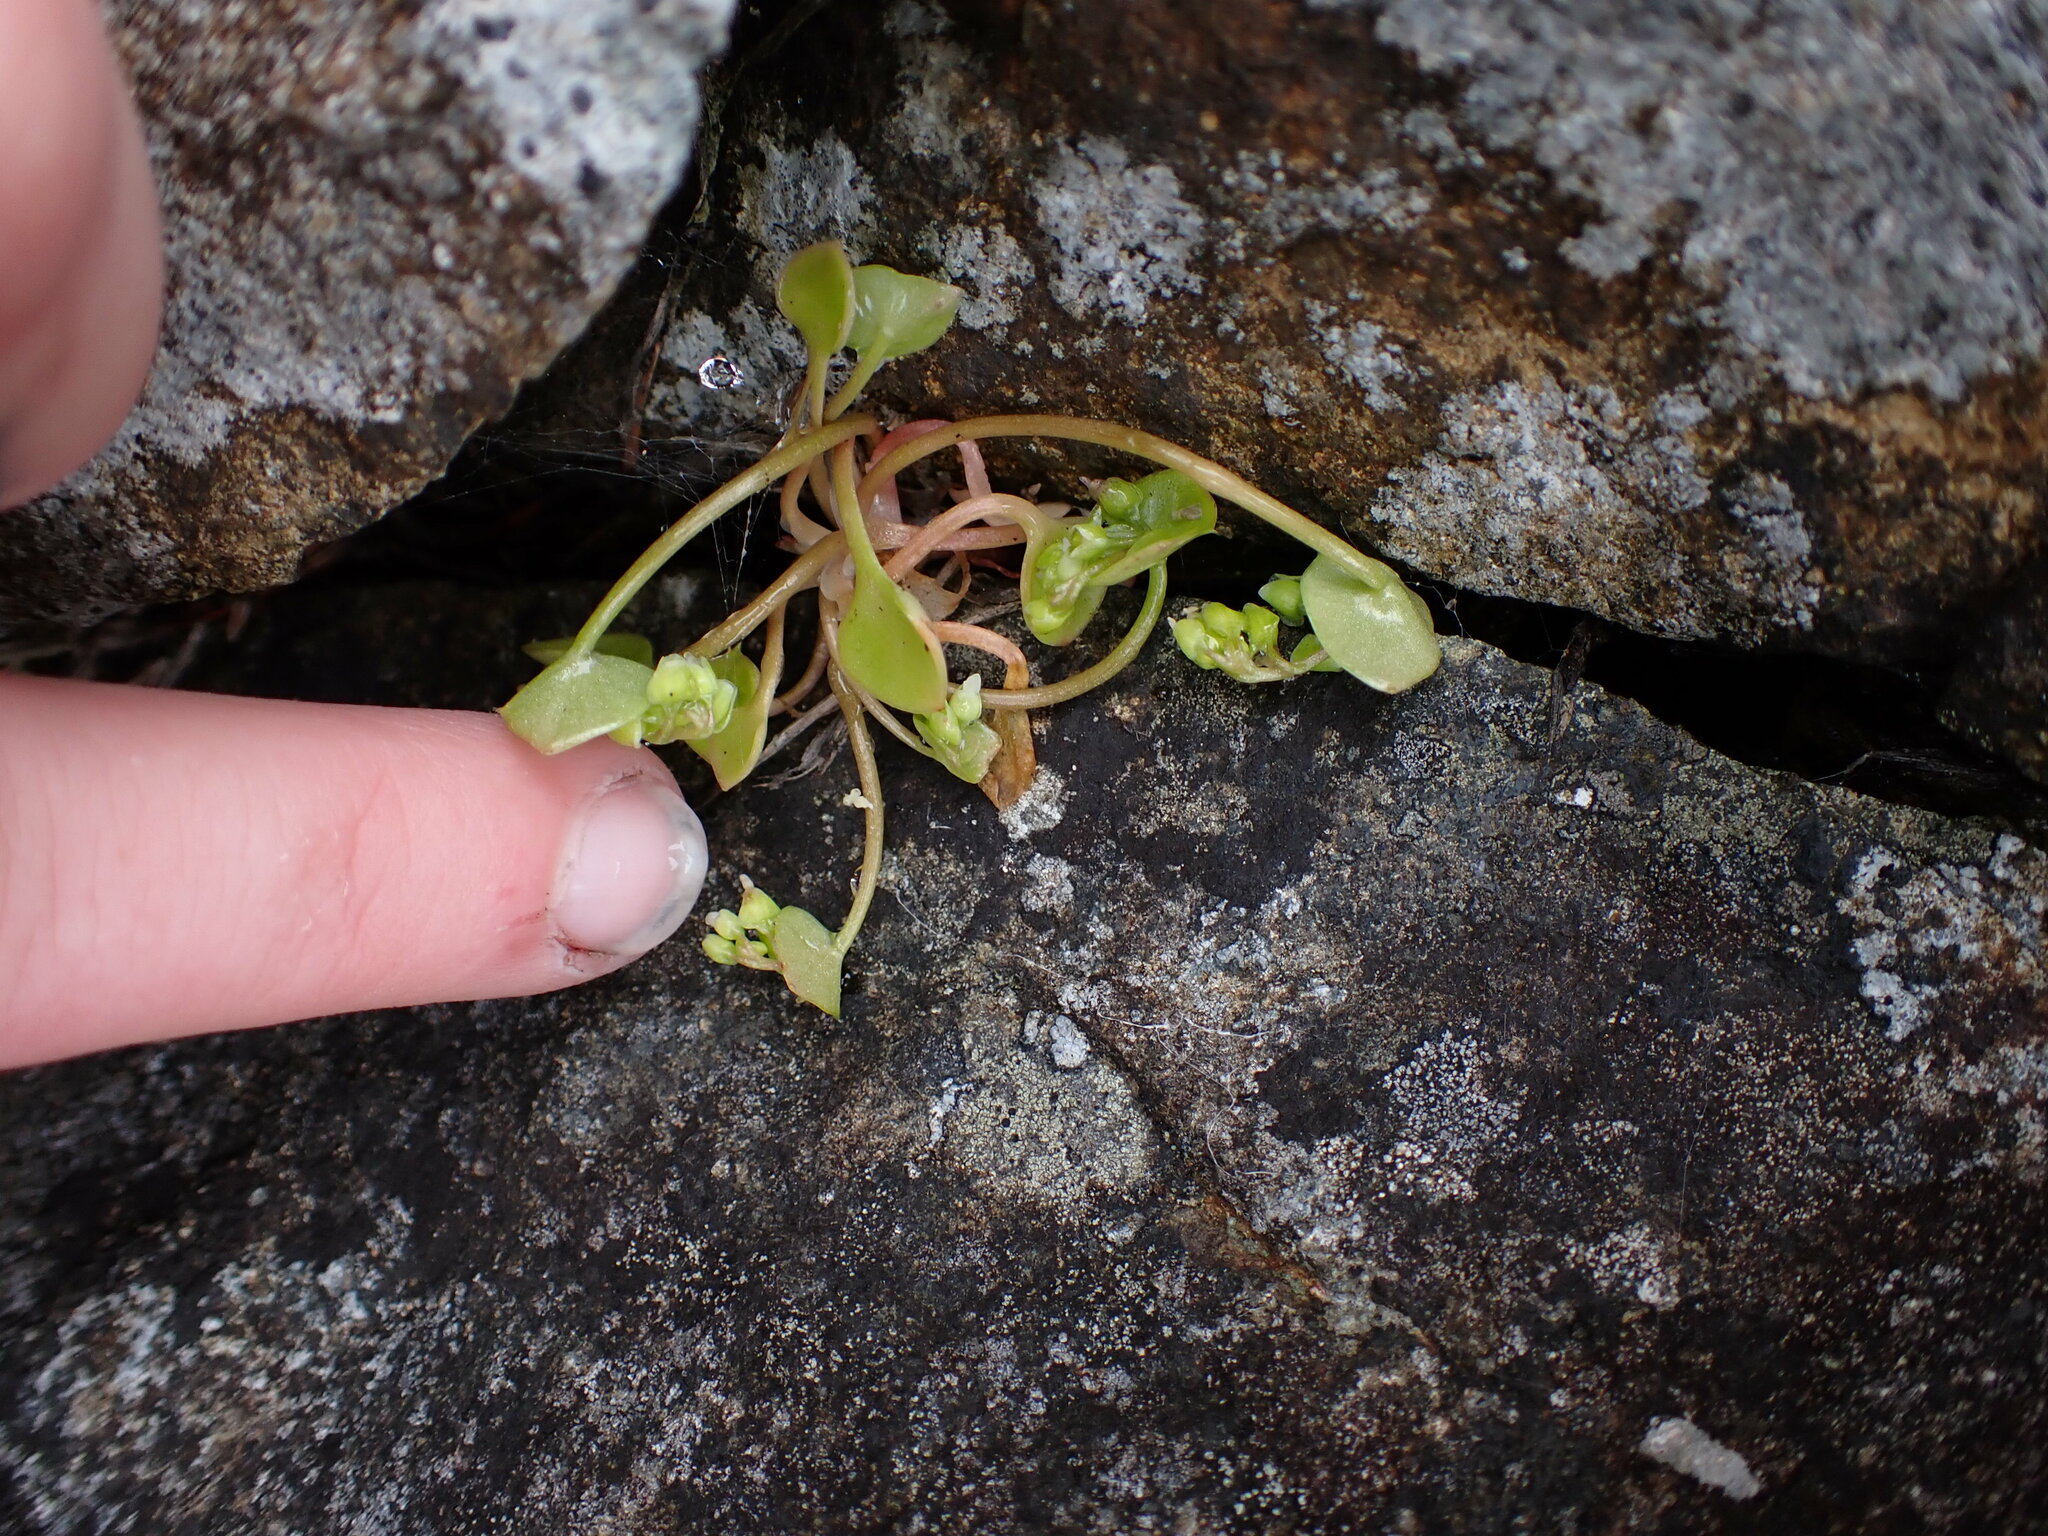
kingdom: Plantae
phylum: Tracheophyta
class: Magnoliopsida
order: Caryophyllales
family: Montiaceae
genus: Claytonia
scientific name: Claytonia rubra
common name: Erubescent miner's-lettuce
